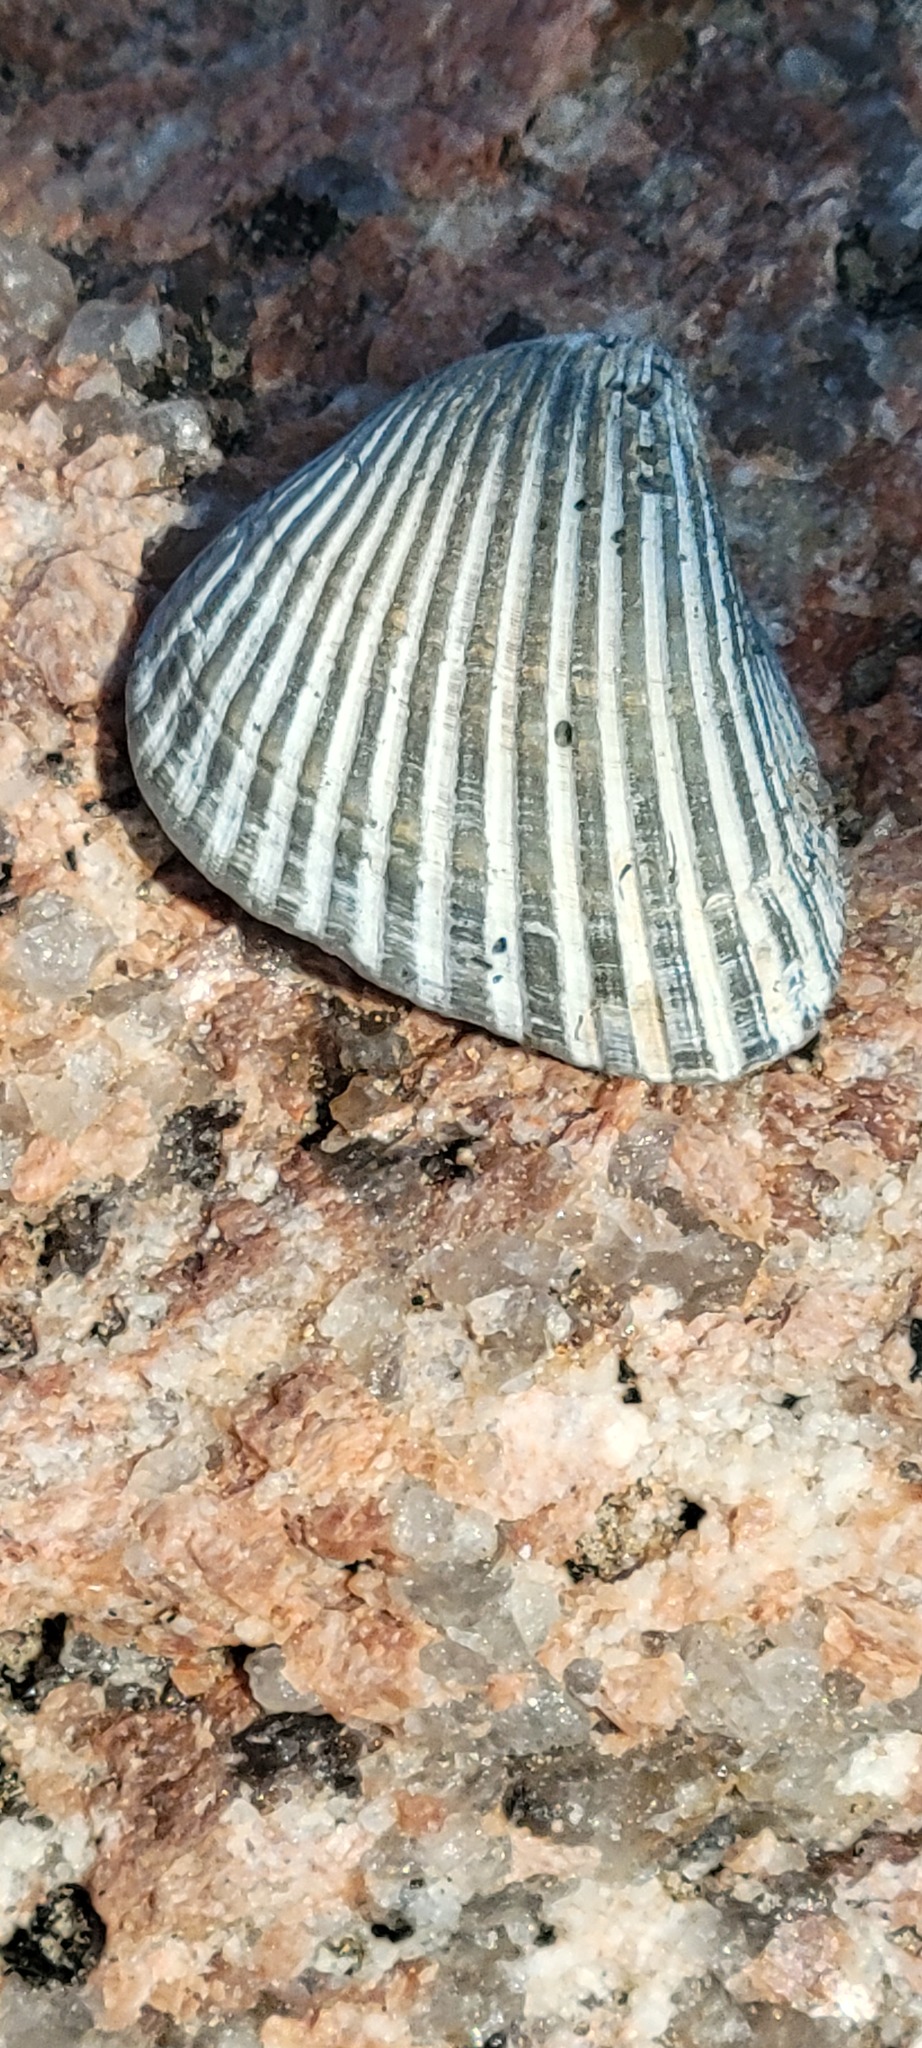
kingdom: Animalia
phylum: Mollusca
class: Bivalvia
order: Arcida
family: Noetiidae
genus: Noetia
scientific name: Noetia ponderosa
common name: Ponderous ark
